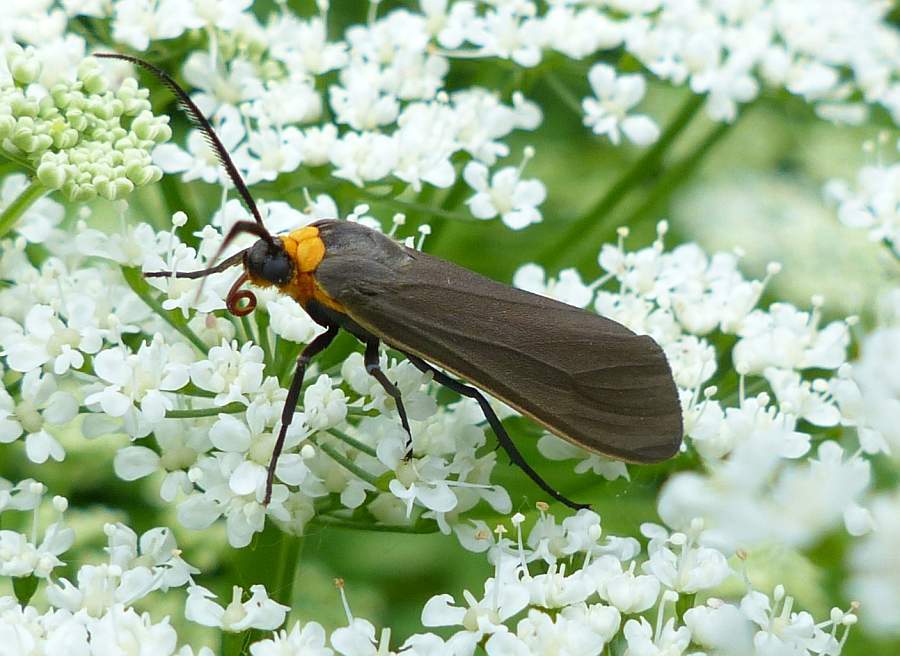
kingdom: Animalia
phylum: Arthropoda
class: Insecta
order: Lepidoptera
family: Erebidae
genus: Cisseps
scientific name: Cisseps fulvicollis
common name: Yellow-collared scape moth
